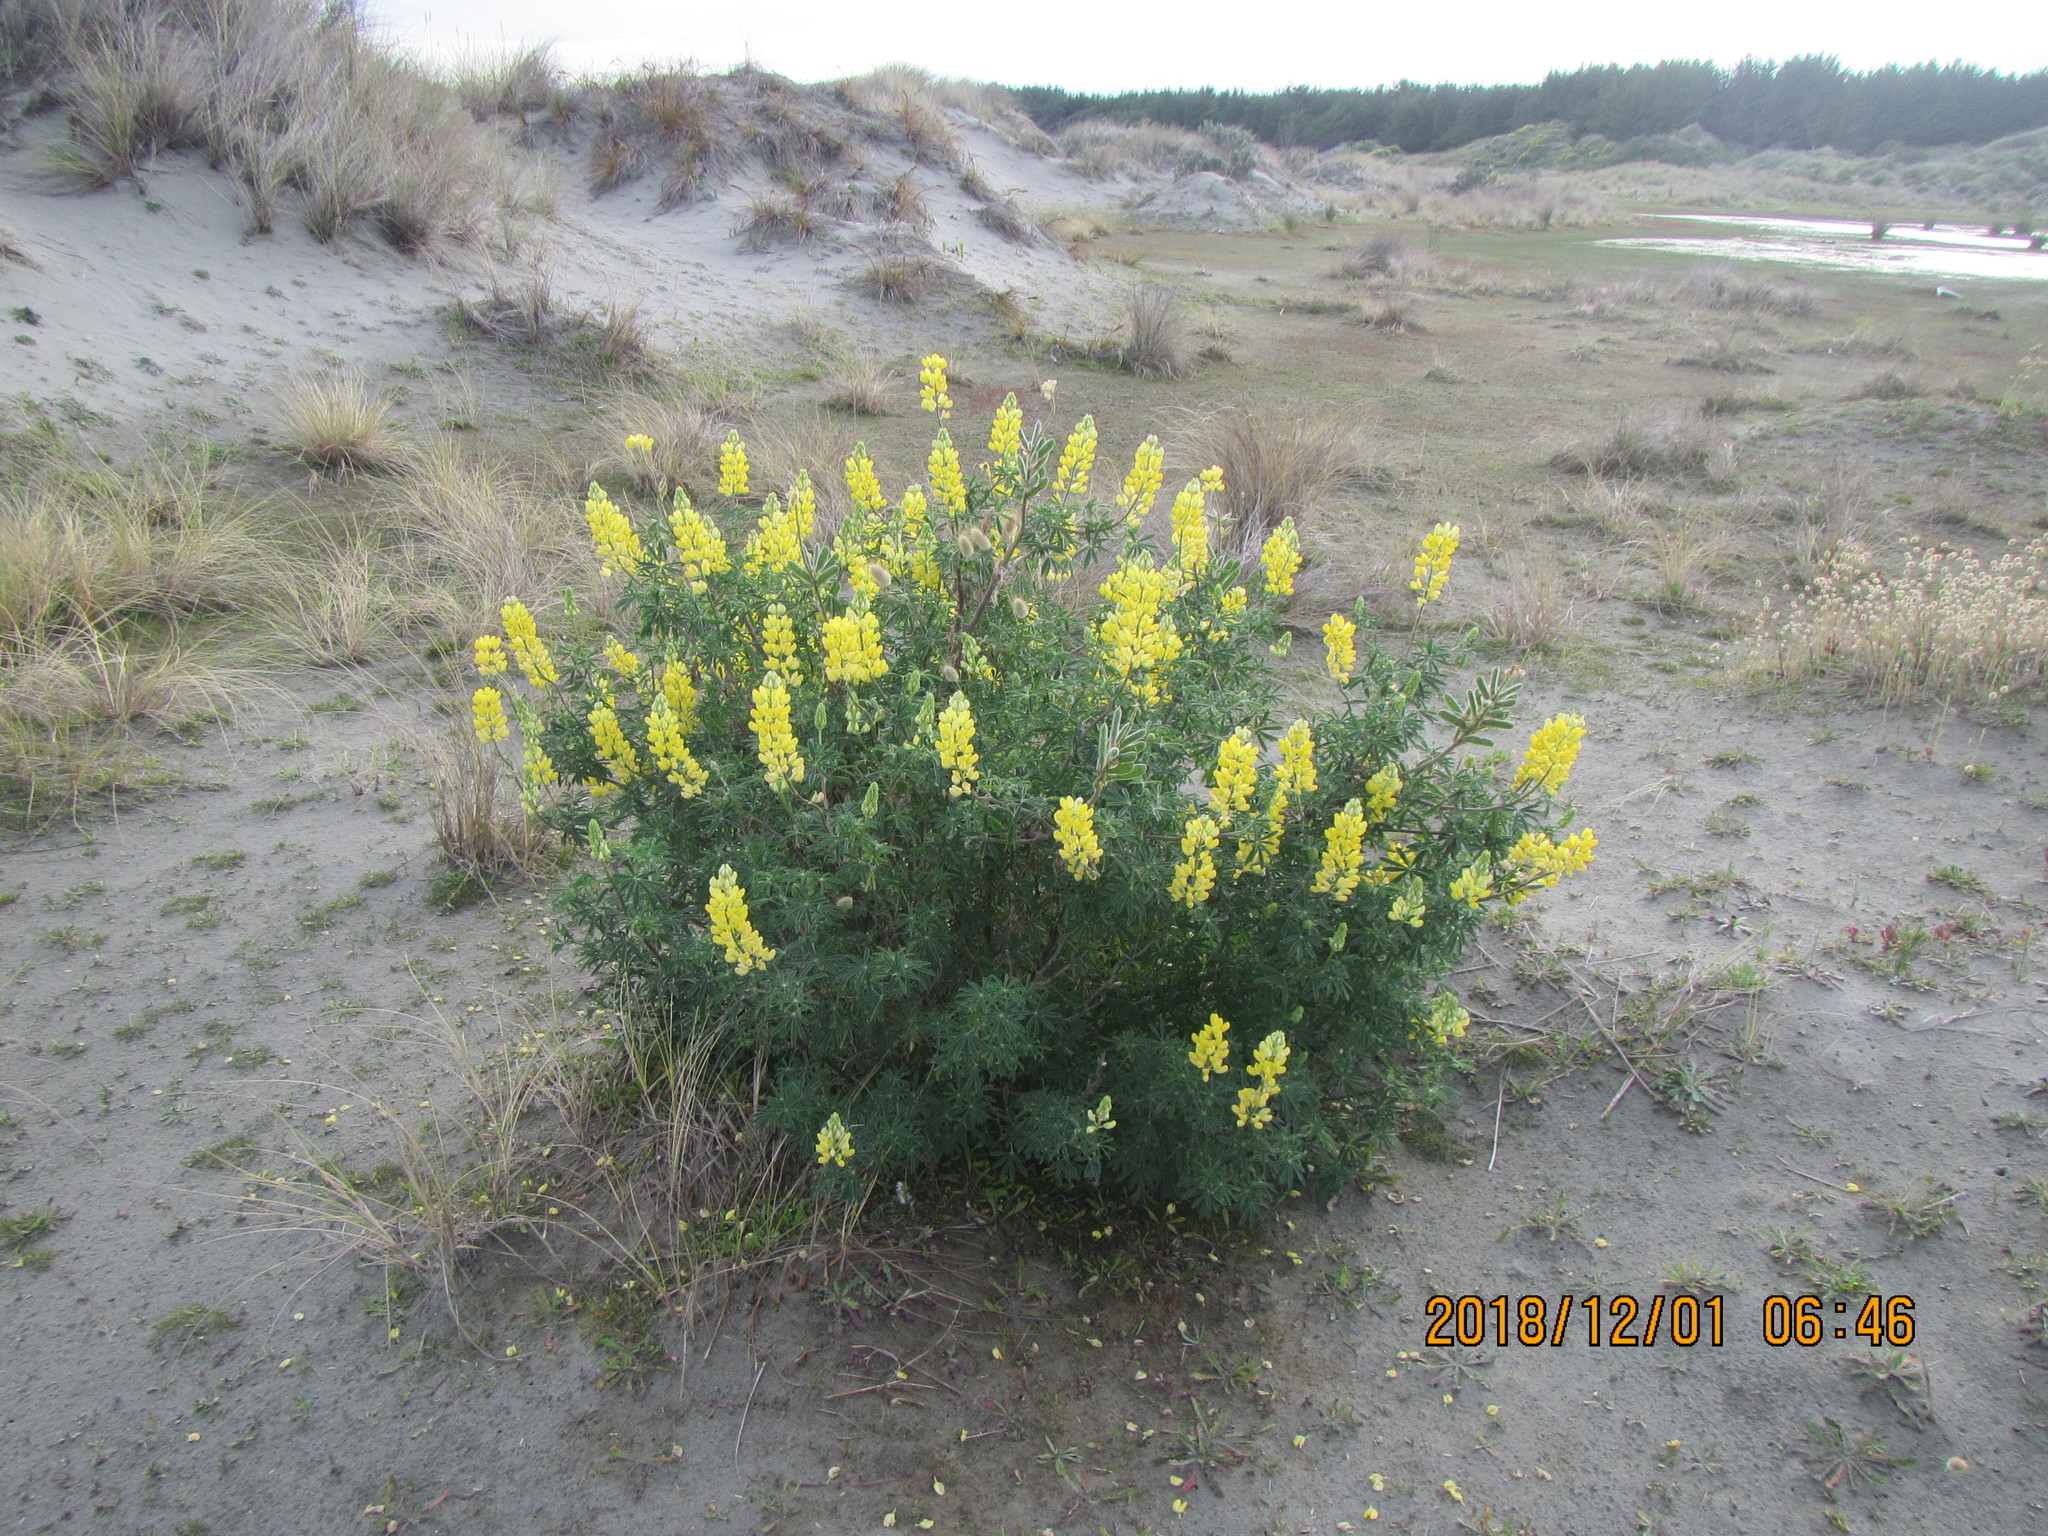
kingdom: Plantae
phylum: Tracheophyta
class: Magnoliopsida
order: Fabales
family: Fabaceae
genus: Lupinus
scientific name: Lupinus arboreus
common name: Yellow bush lupine
